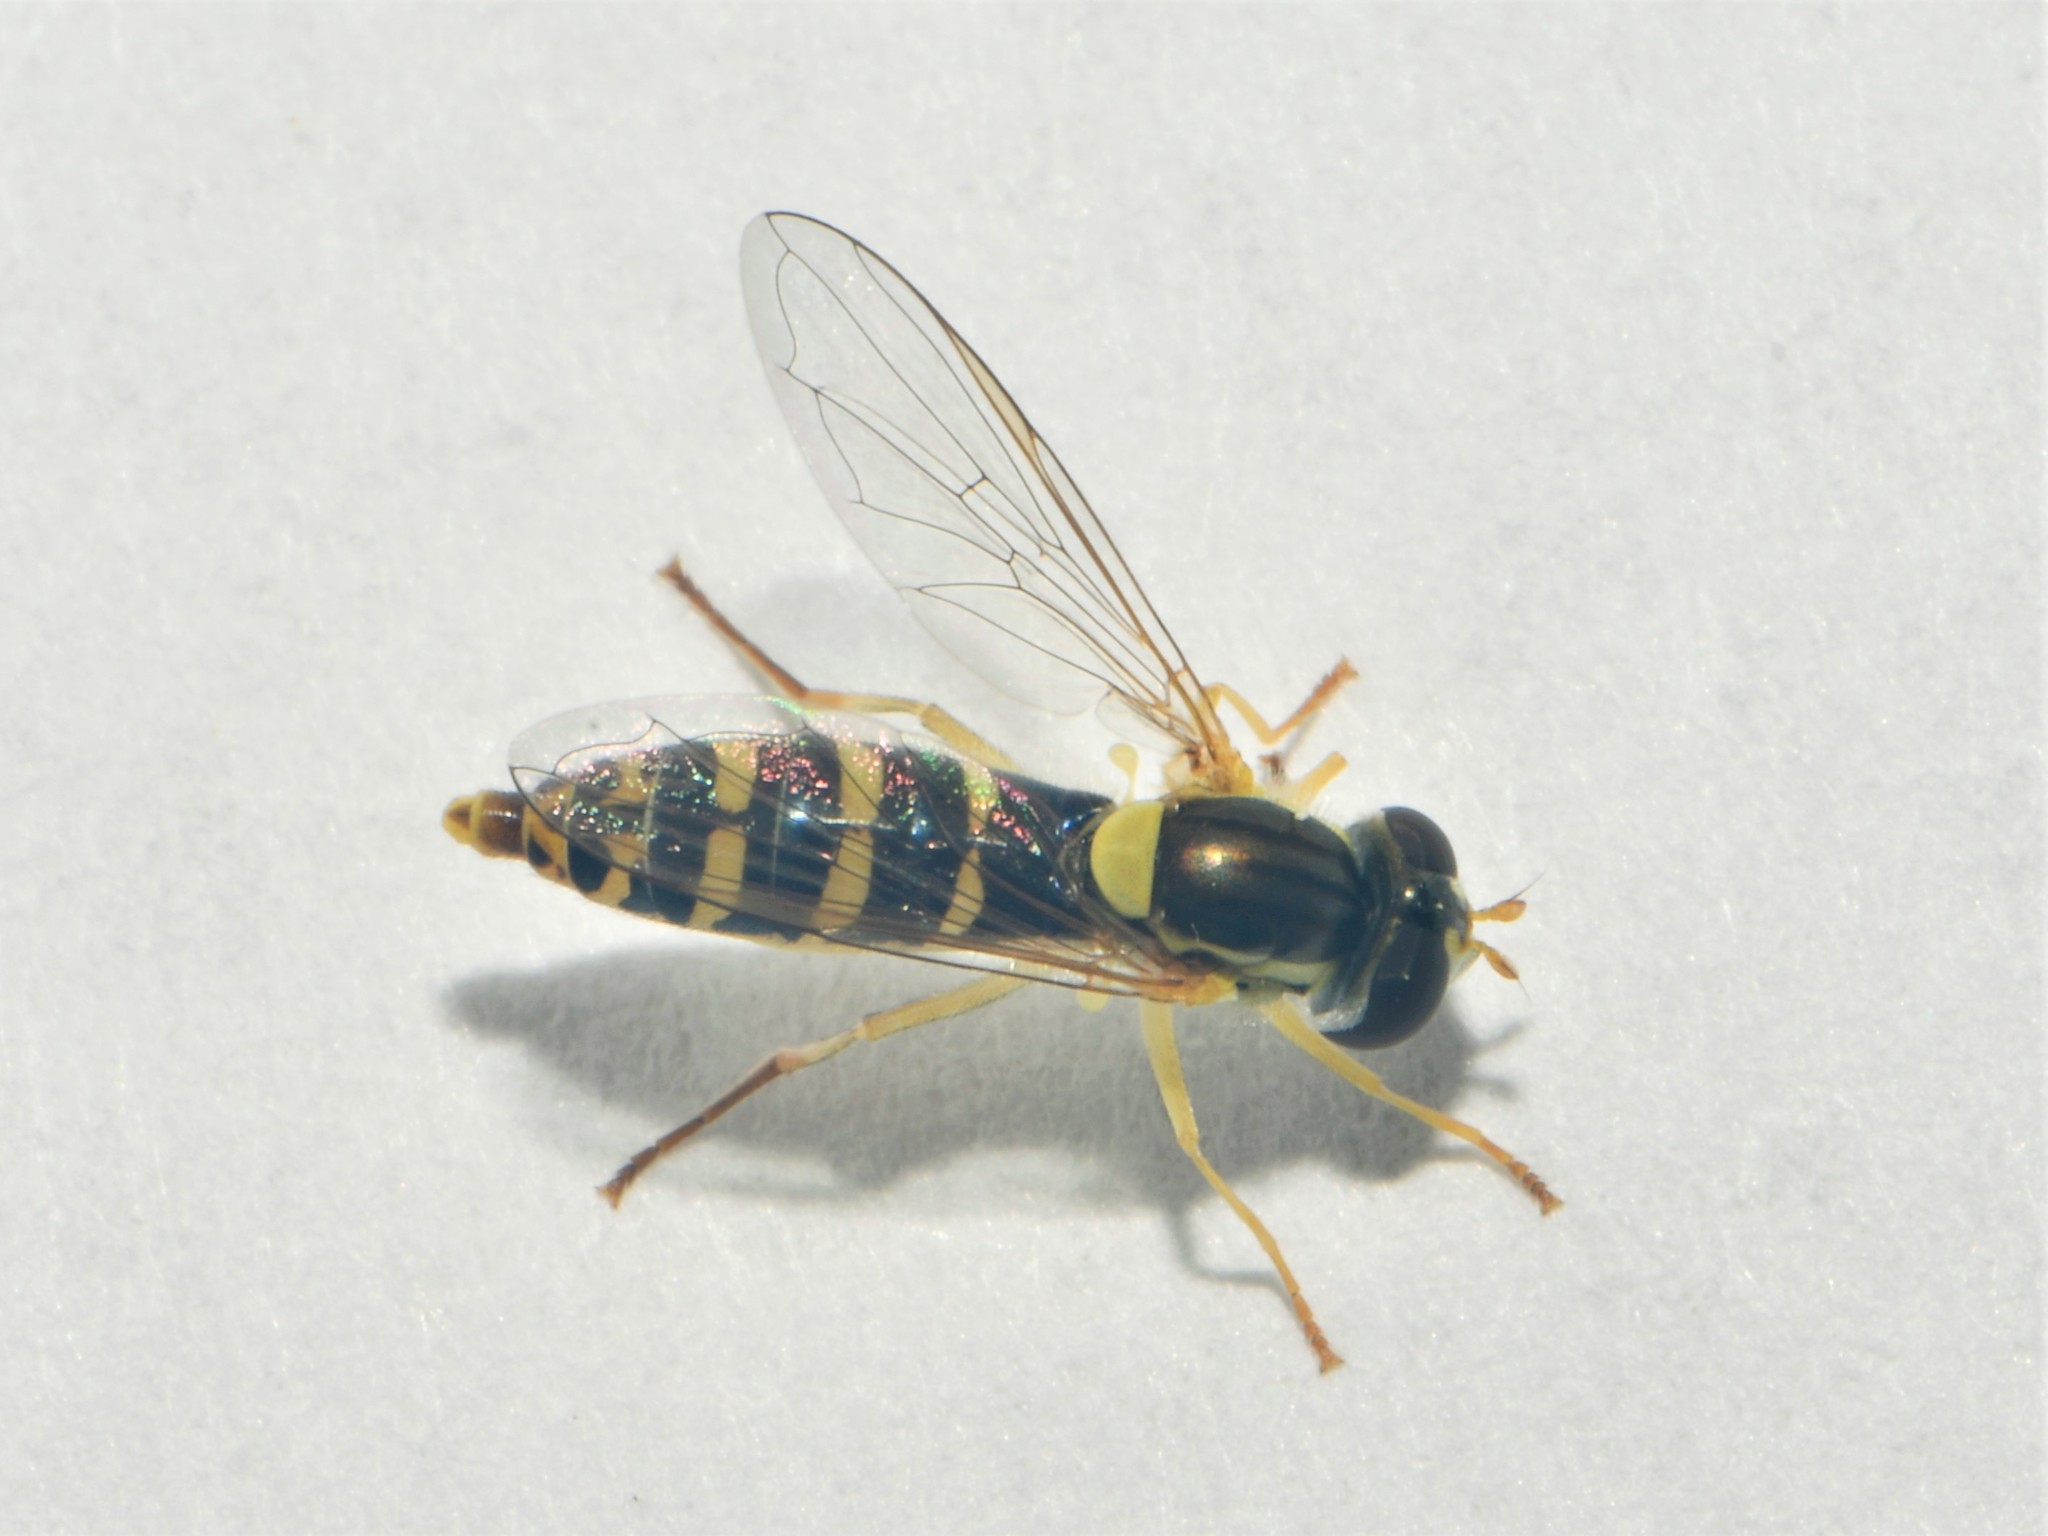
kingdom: Animalia
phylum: Arthropoda
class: Insecta
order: Diptera
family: Syrphidae
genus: Sphaerophoria
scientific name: Sphaerophoria
